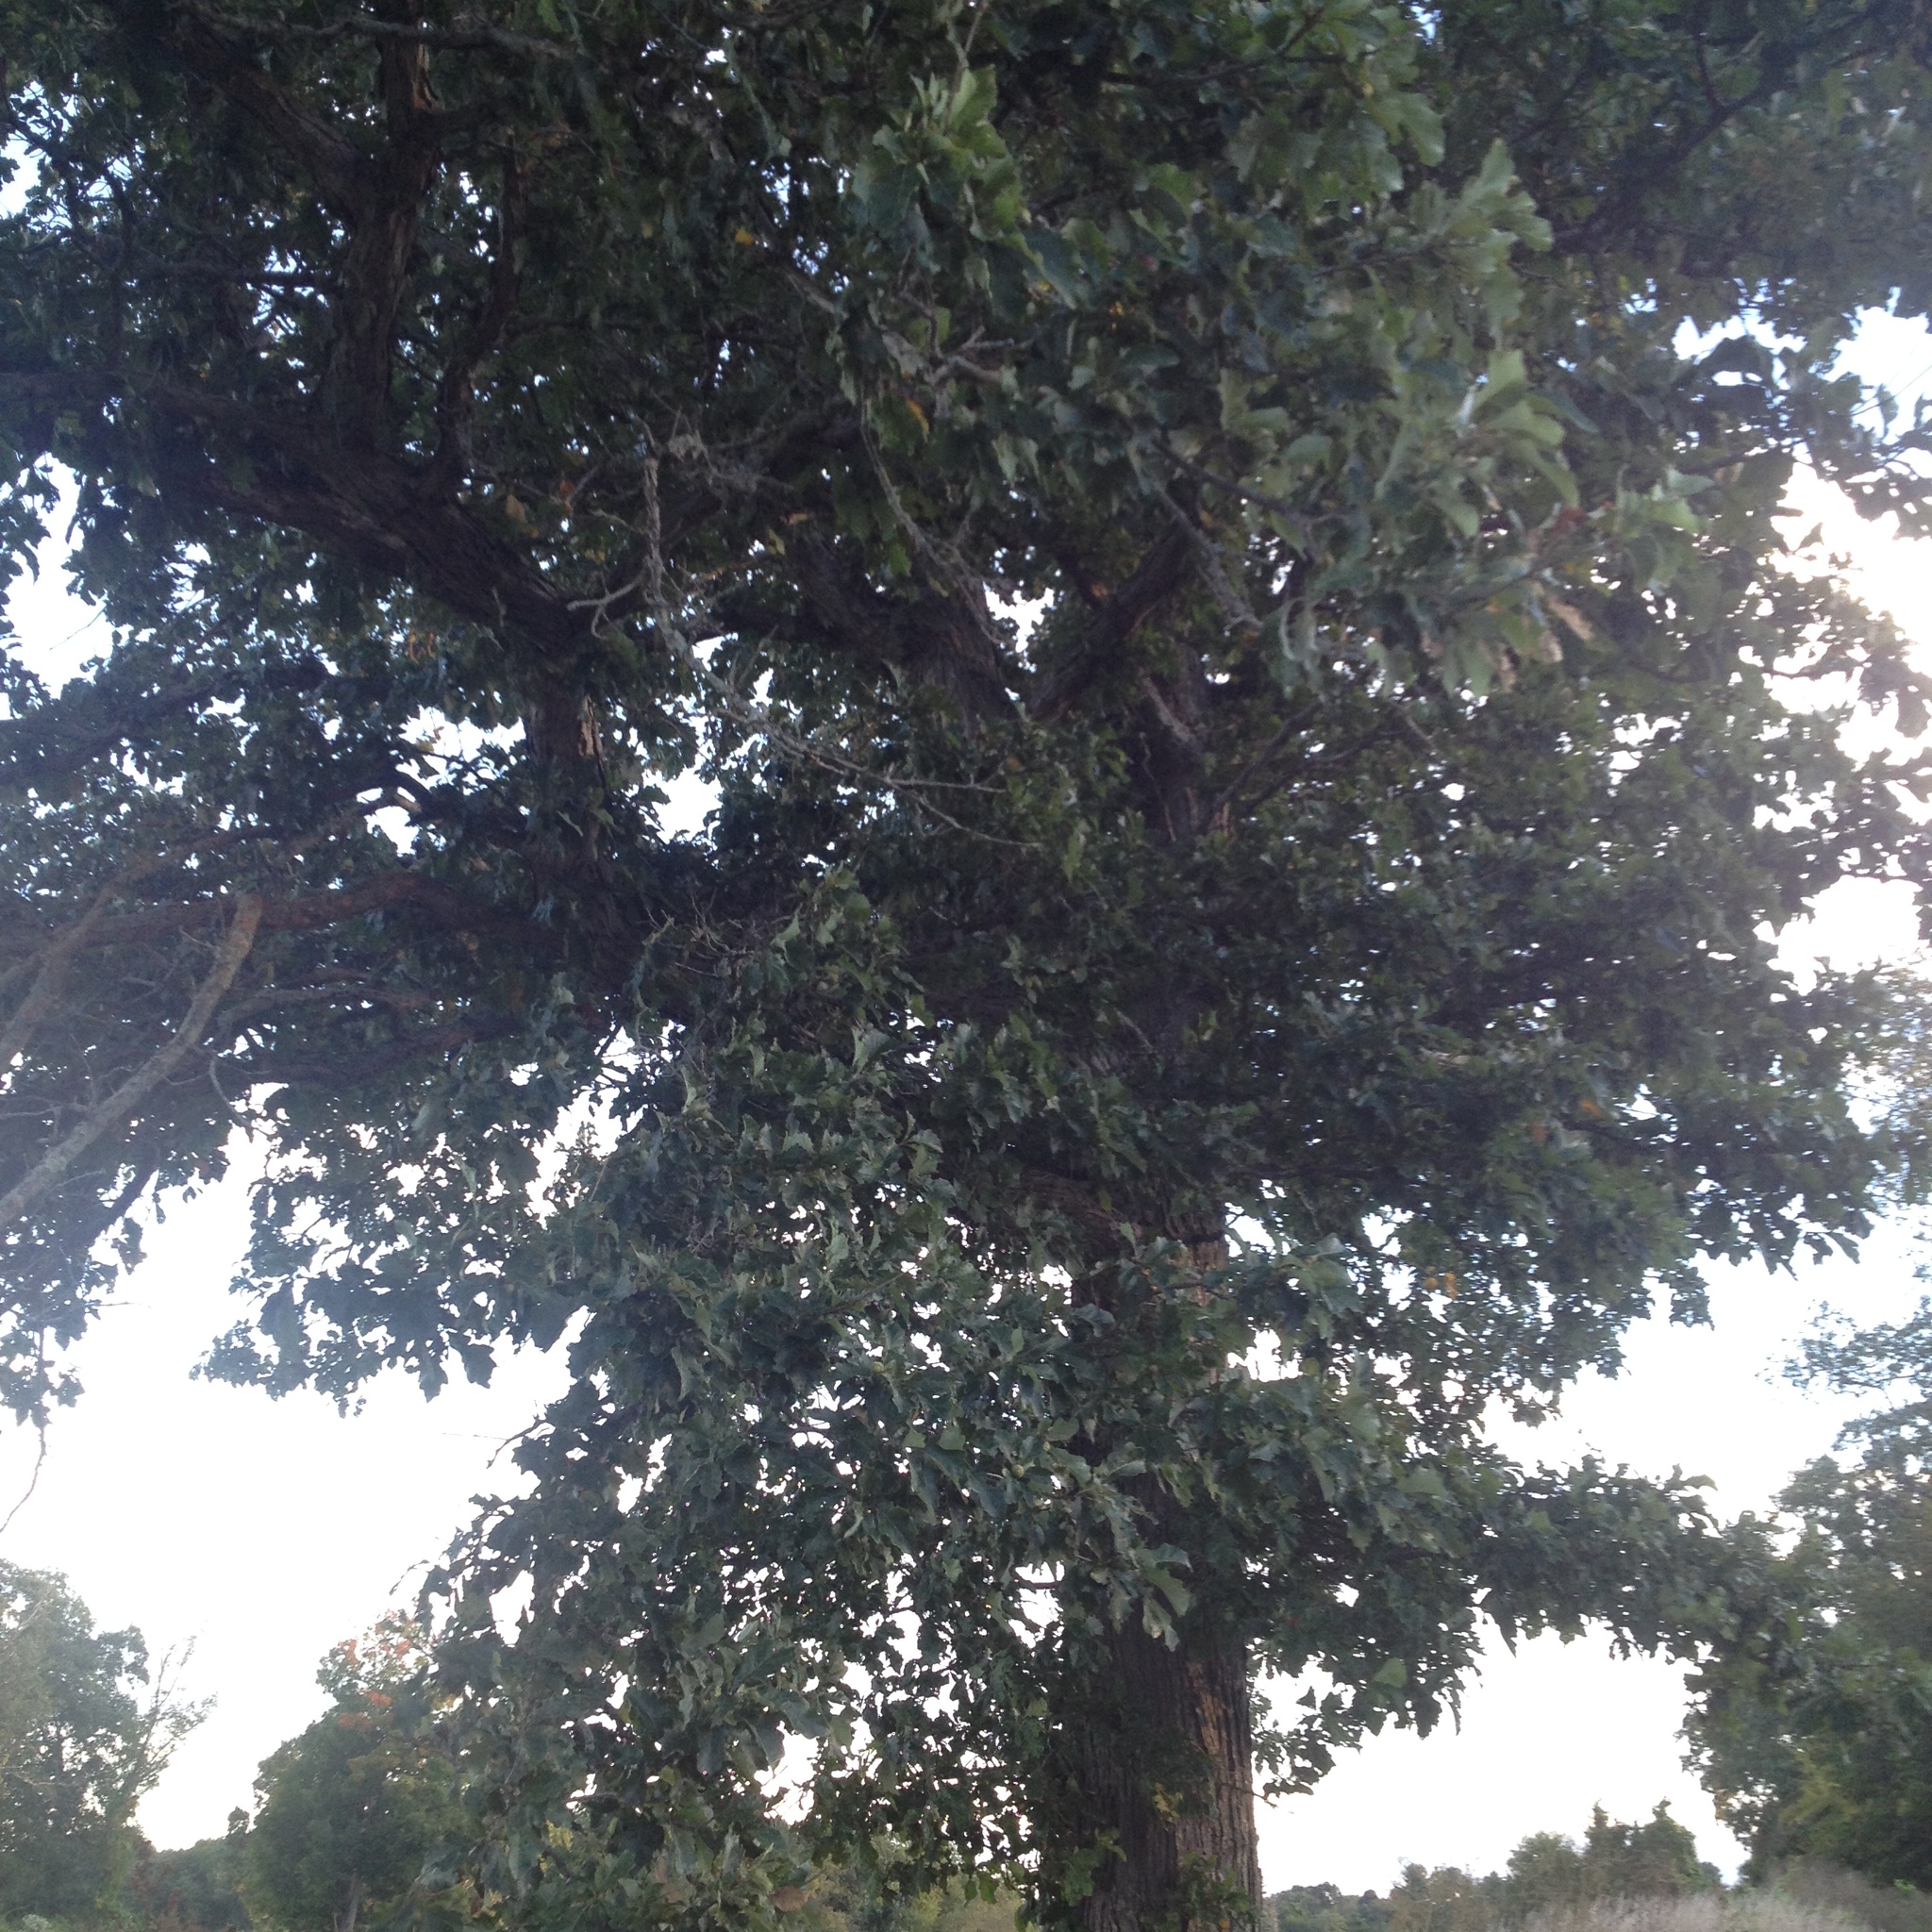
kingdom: Plantae
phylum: Tracheophyta
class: Magnoliopsida
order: Fagales
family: Fagaceae
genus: Quercus
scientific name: Quercus bicolor
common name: Swamp white oak
